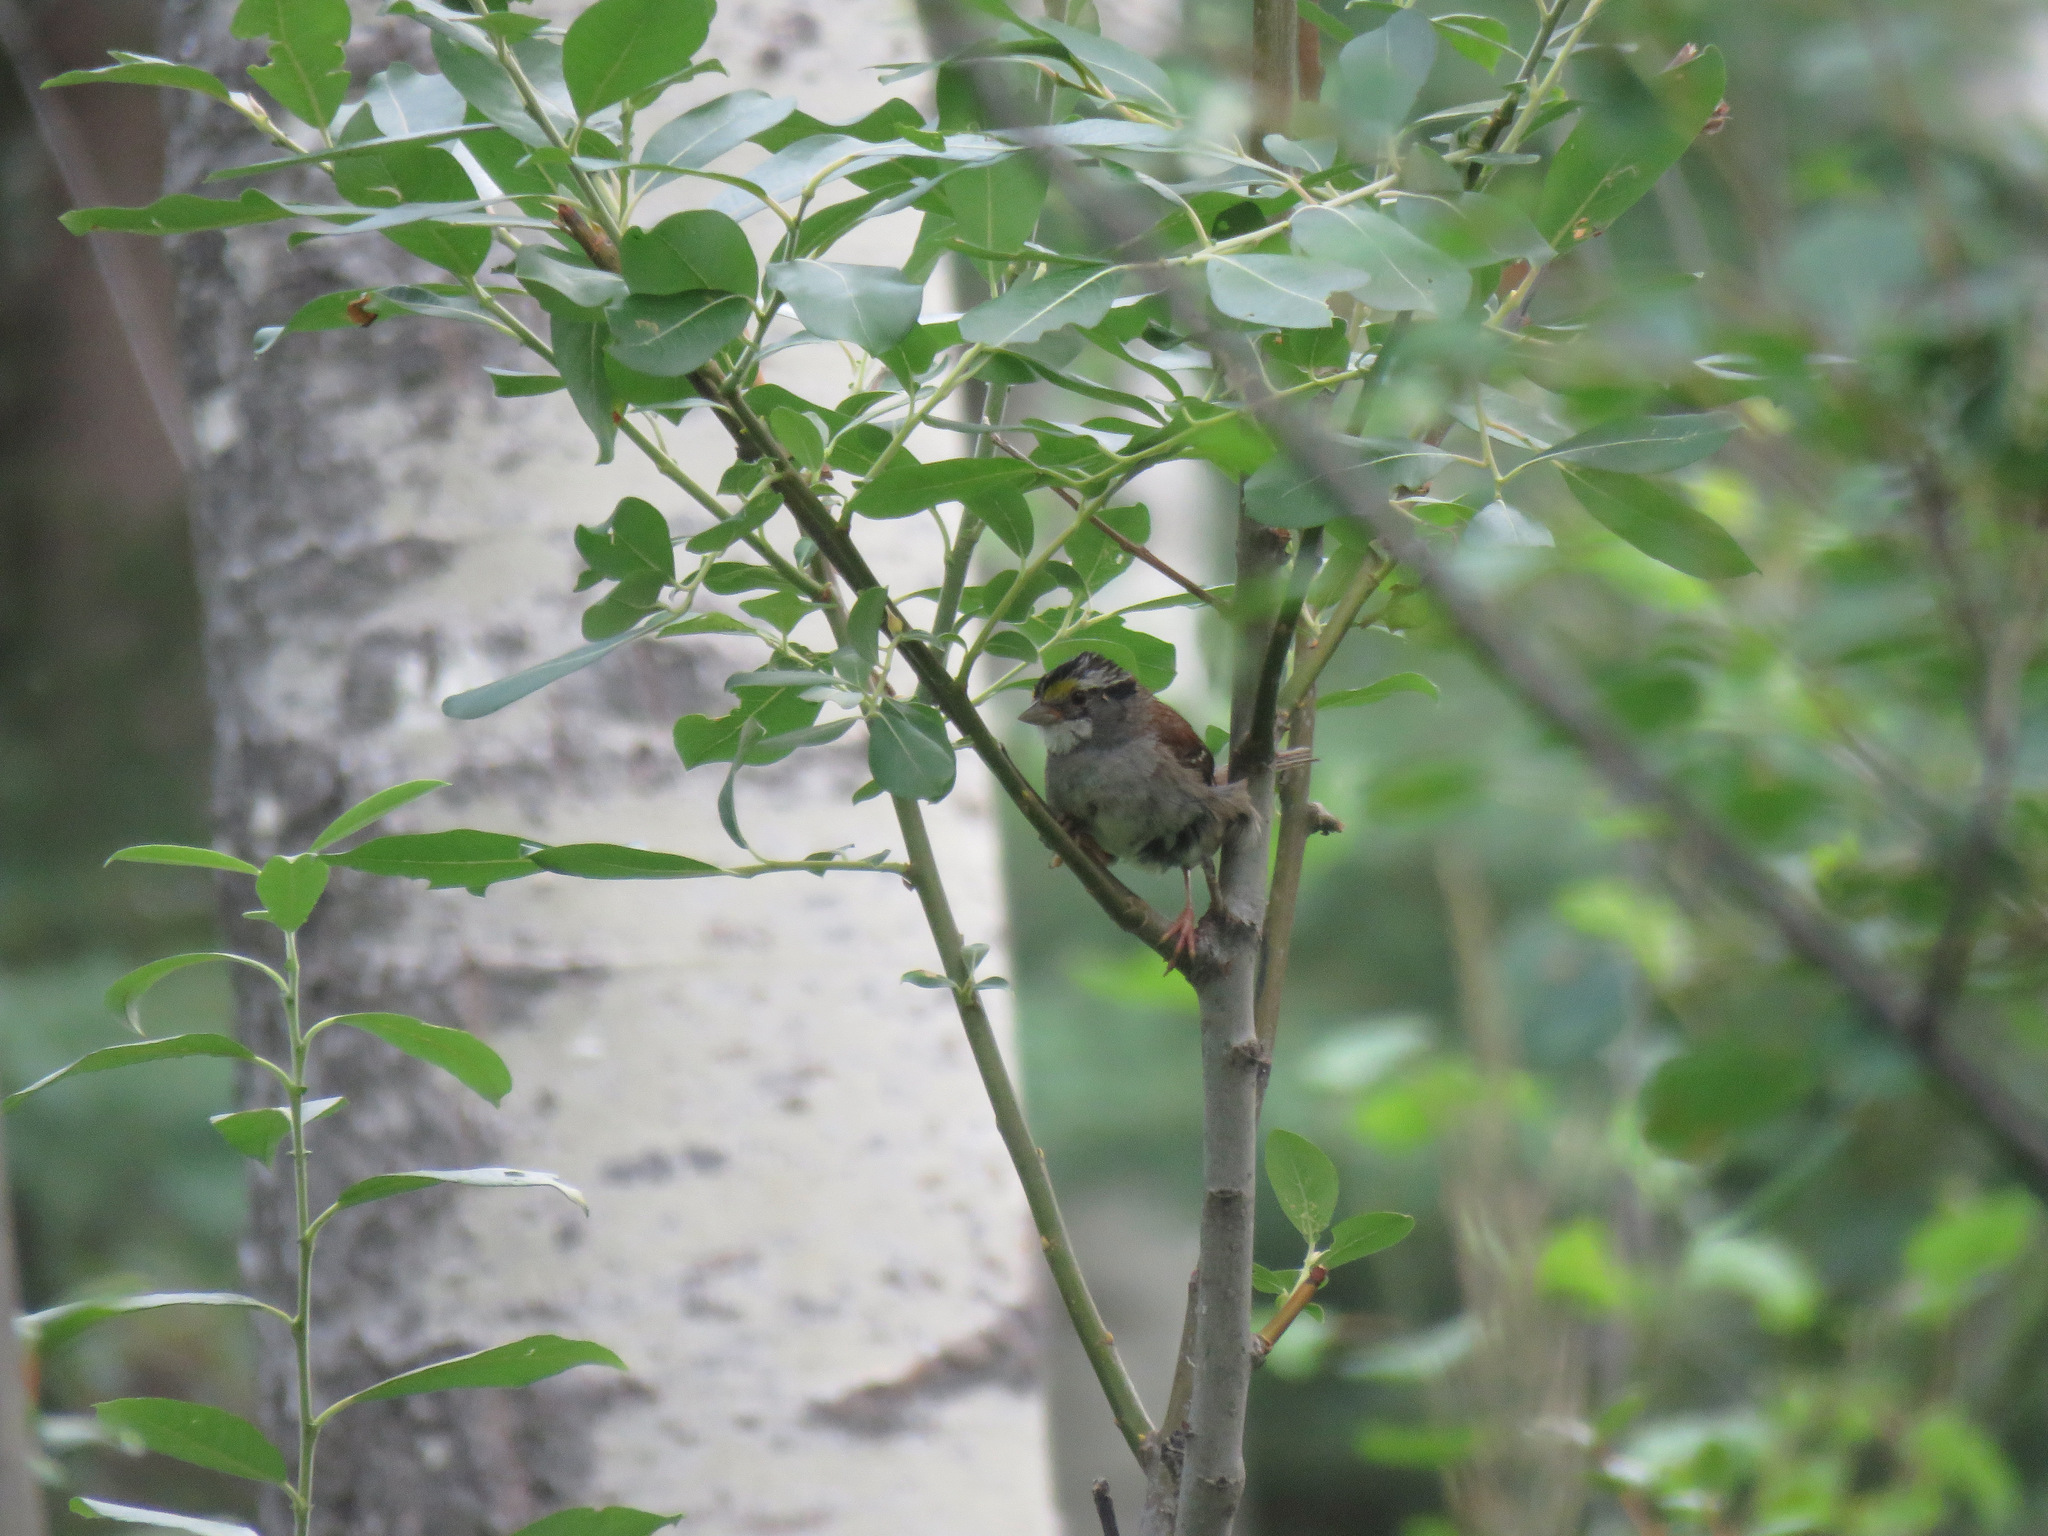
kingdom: Animalia
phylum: Chordata
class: Aves
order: Passeriformes
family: Passerellidae
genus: Zonotrichia
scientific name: Zonotrichia albicollis
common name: White-throated sparrow
